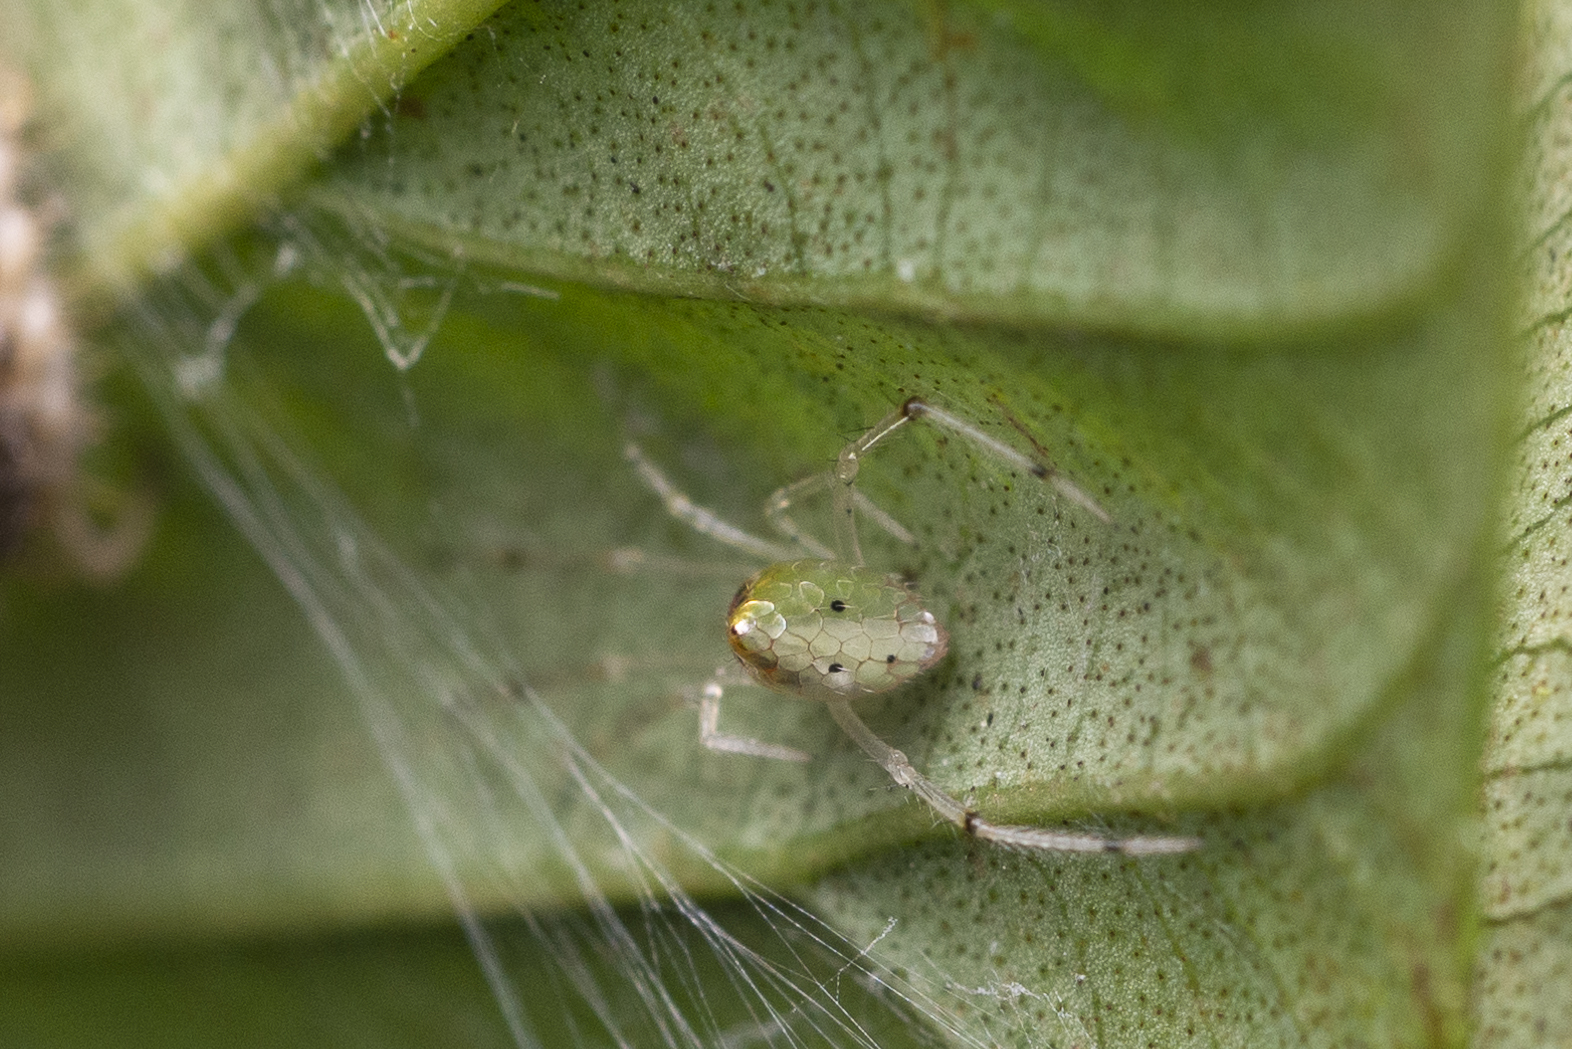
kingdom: Animalia
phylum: Arthropoda
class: Arachnida
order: Araneae
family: Theridiidae
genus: Thwaitesia
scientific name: Thwaitesia margaritifera
